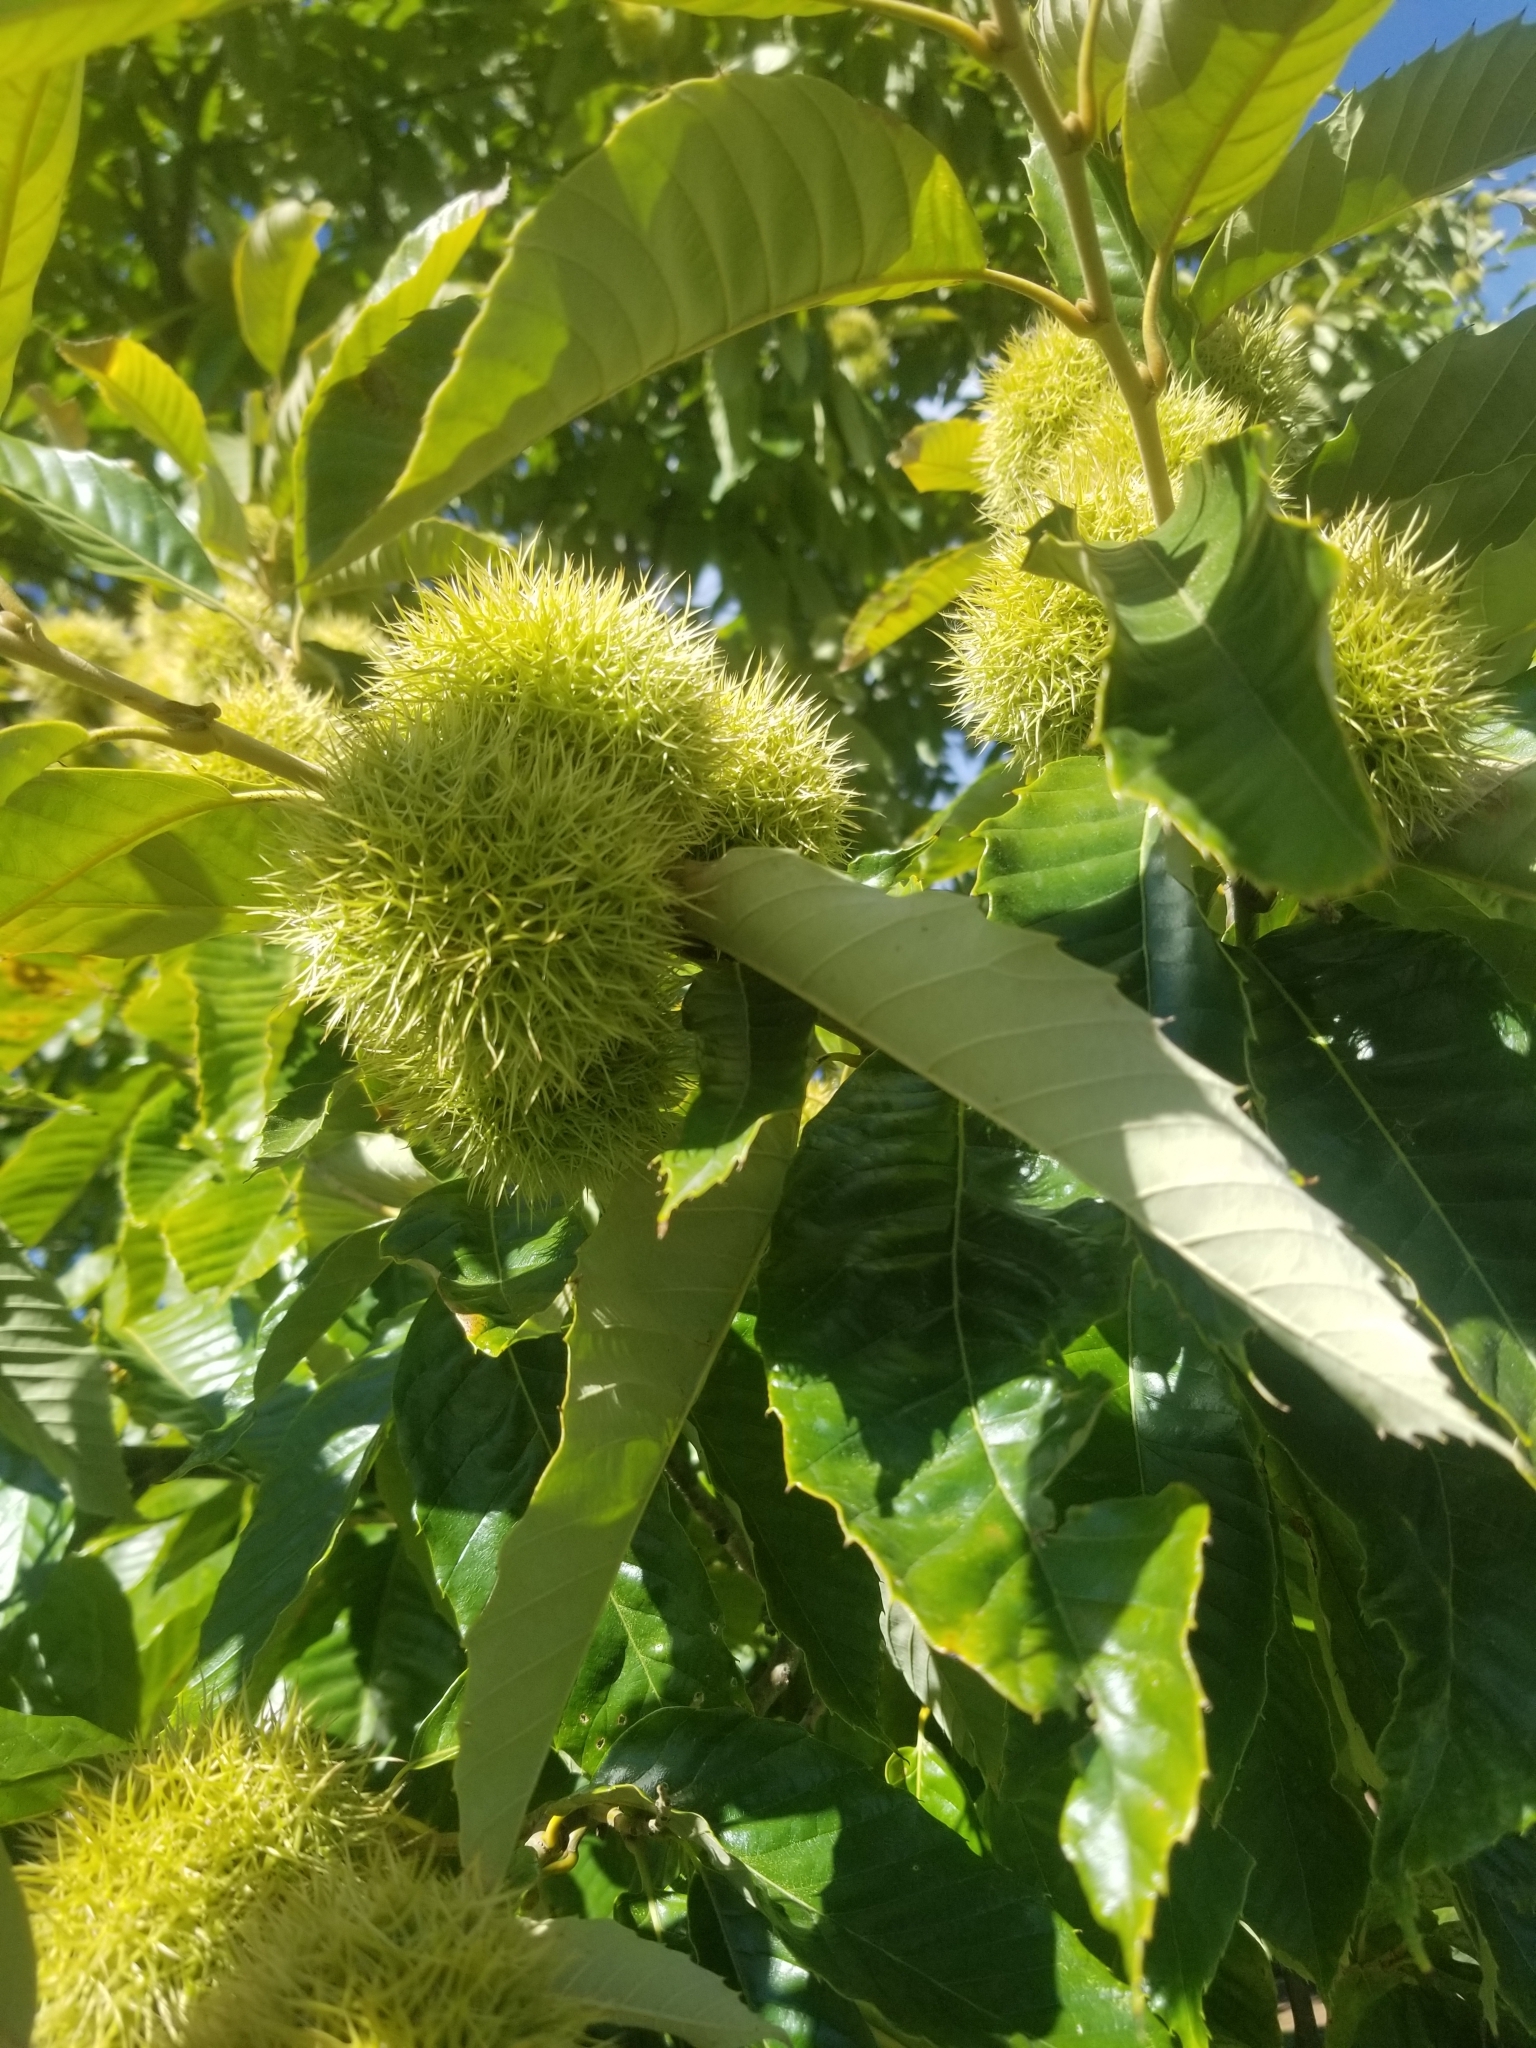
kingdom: Plantae
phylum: Tracheophyta
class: Magnoliopsida
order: Fagales
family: Fagaceae
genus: Castanea
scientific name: Castanea mollissima
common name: Chinese chestnut
